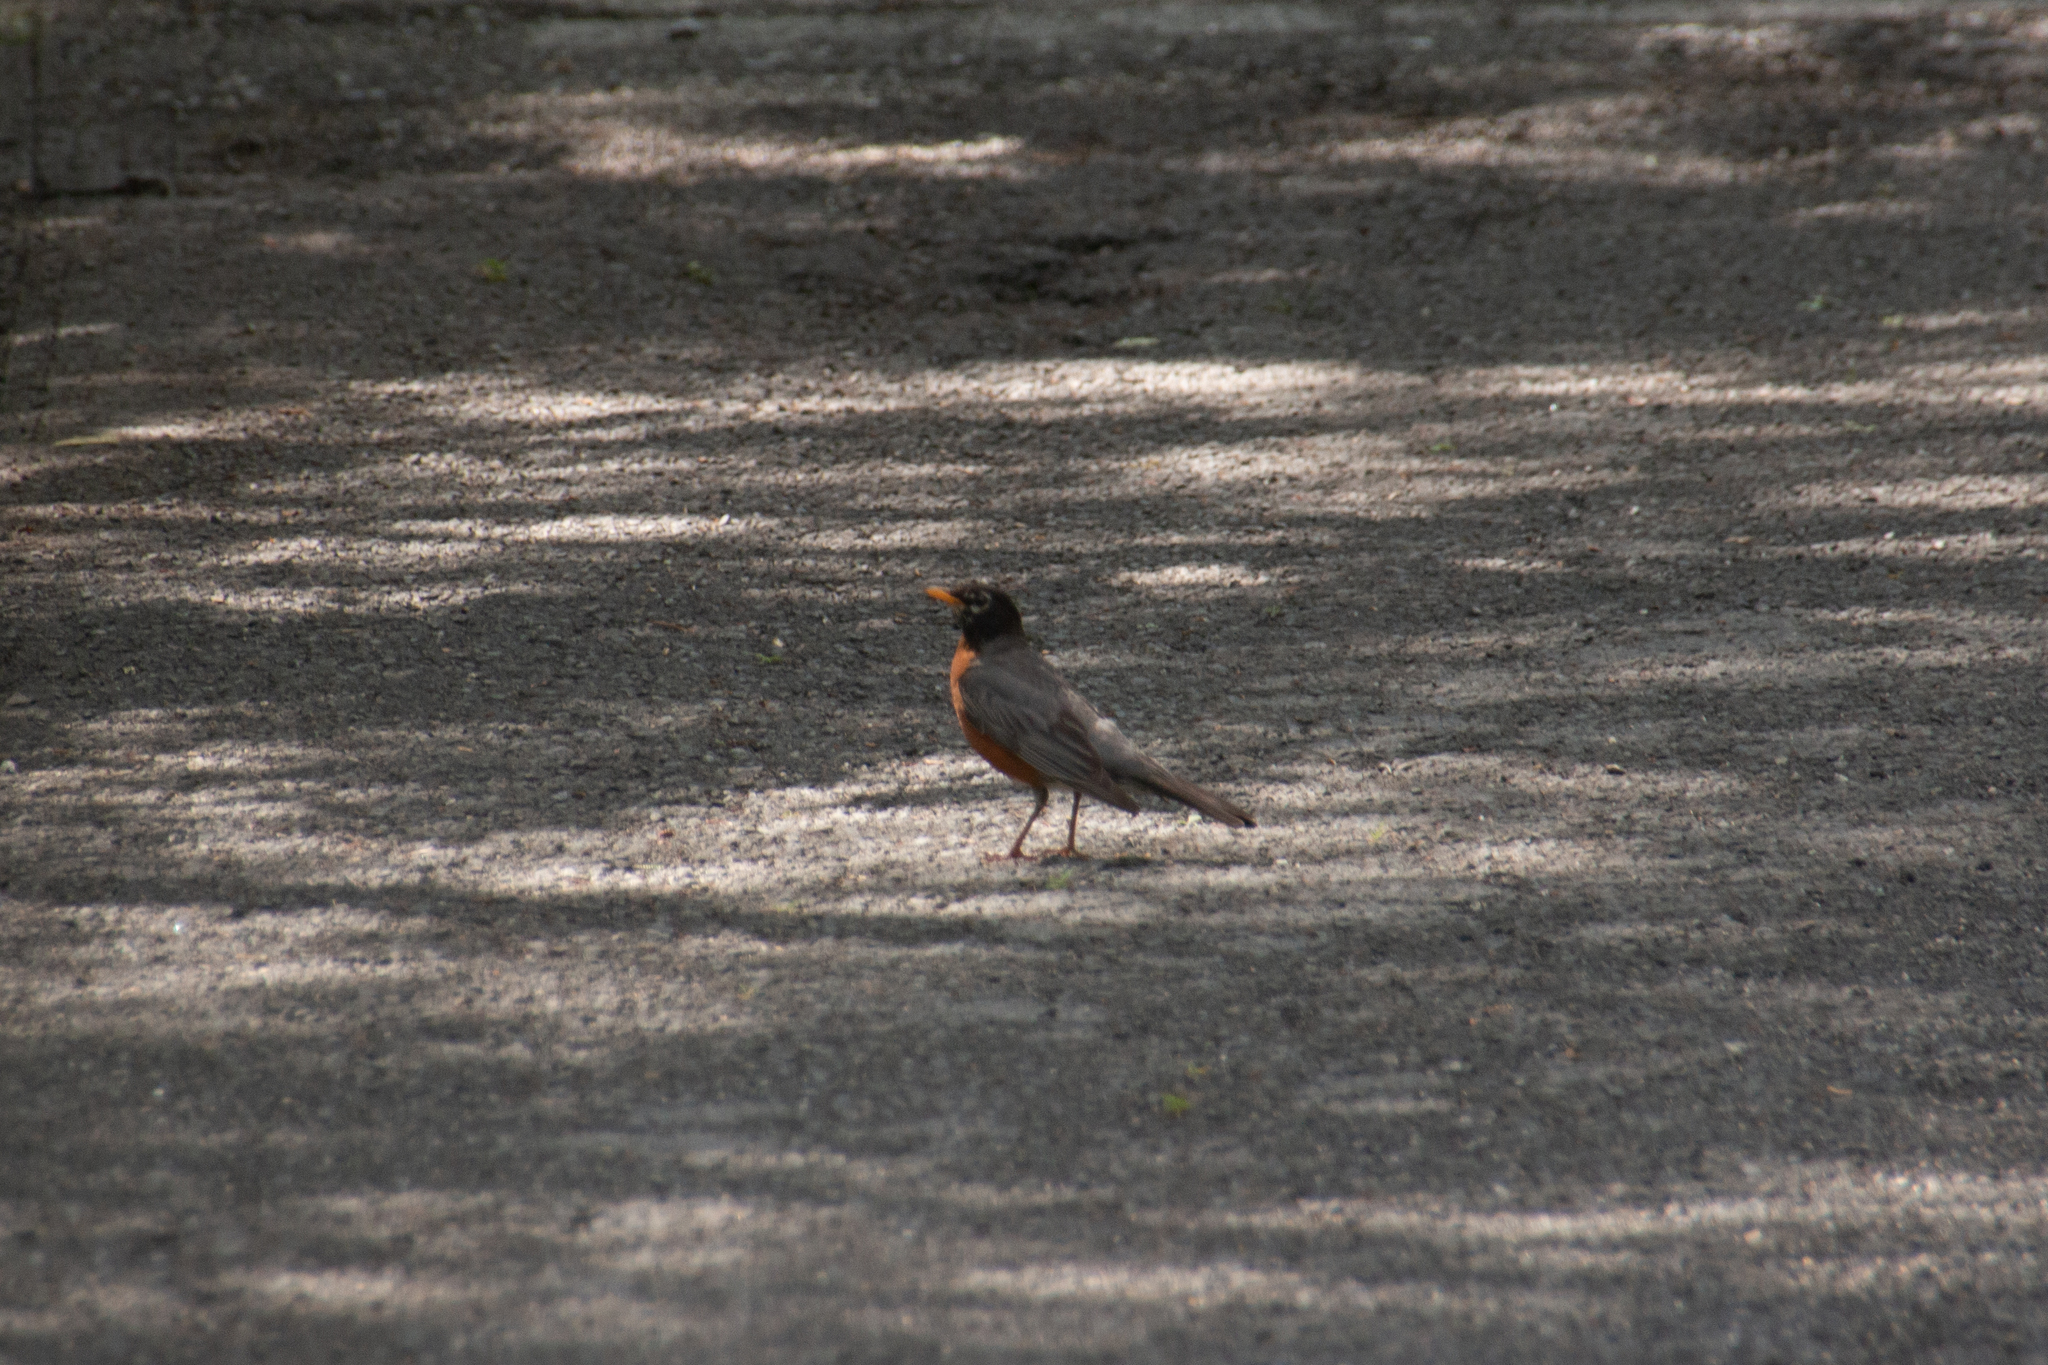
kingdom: Animalia
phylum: Chordata
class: Aves
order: Passeriformes
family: Turdidae
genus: Turdus
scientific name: Turdus migratorius
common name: American robin
